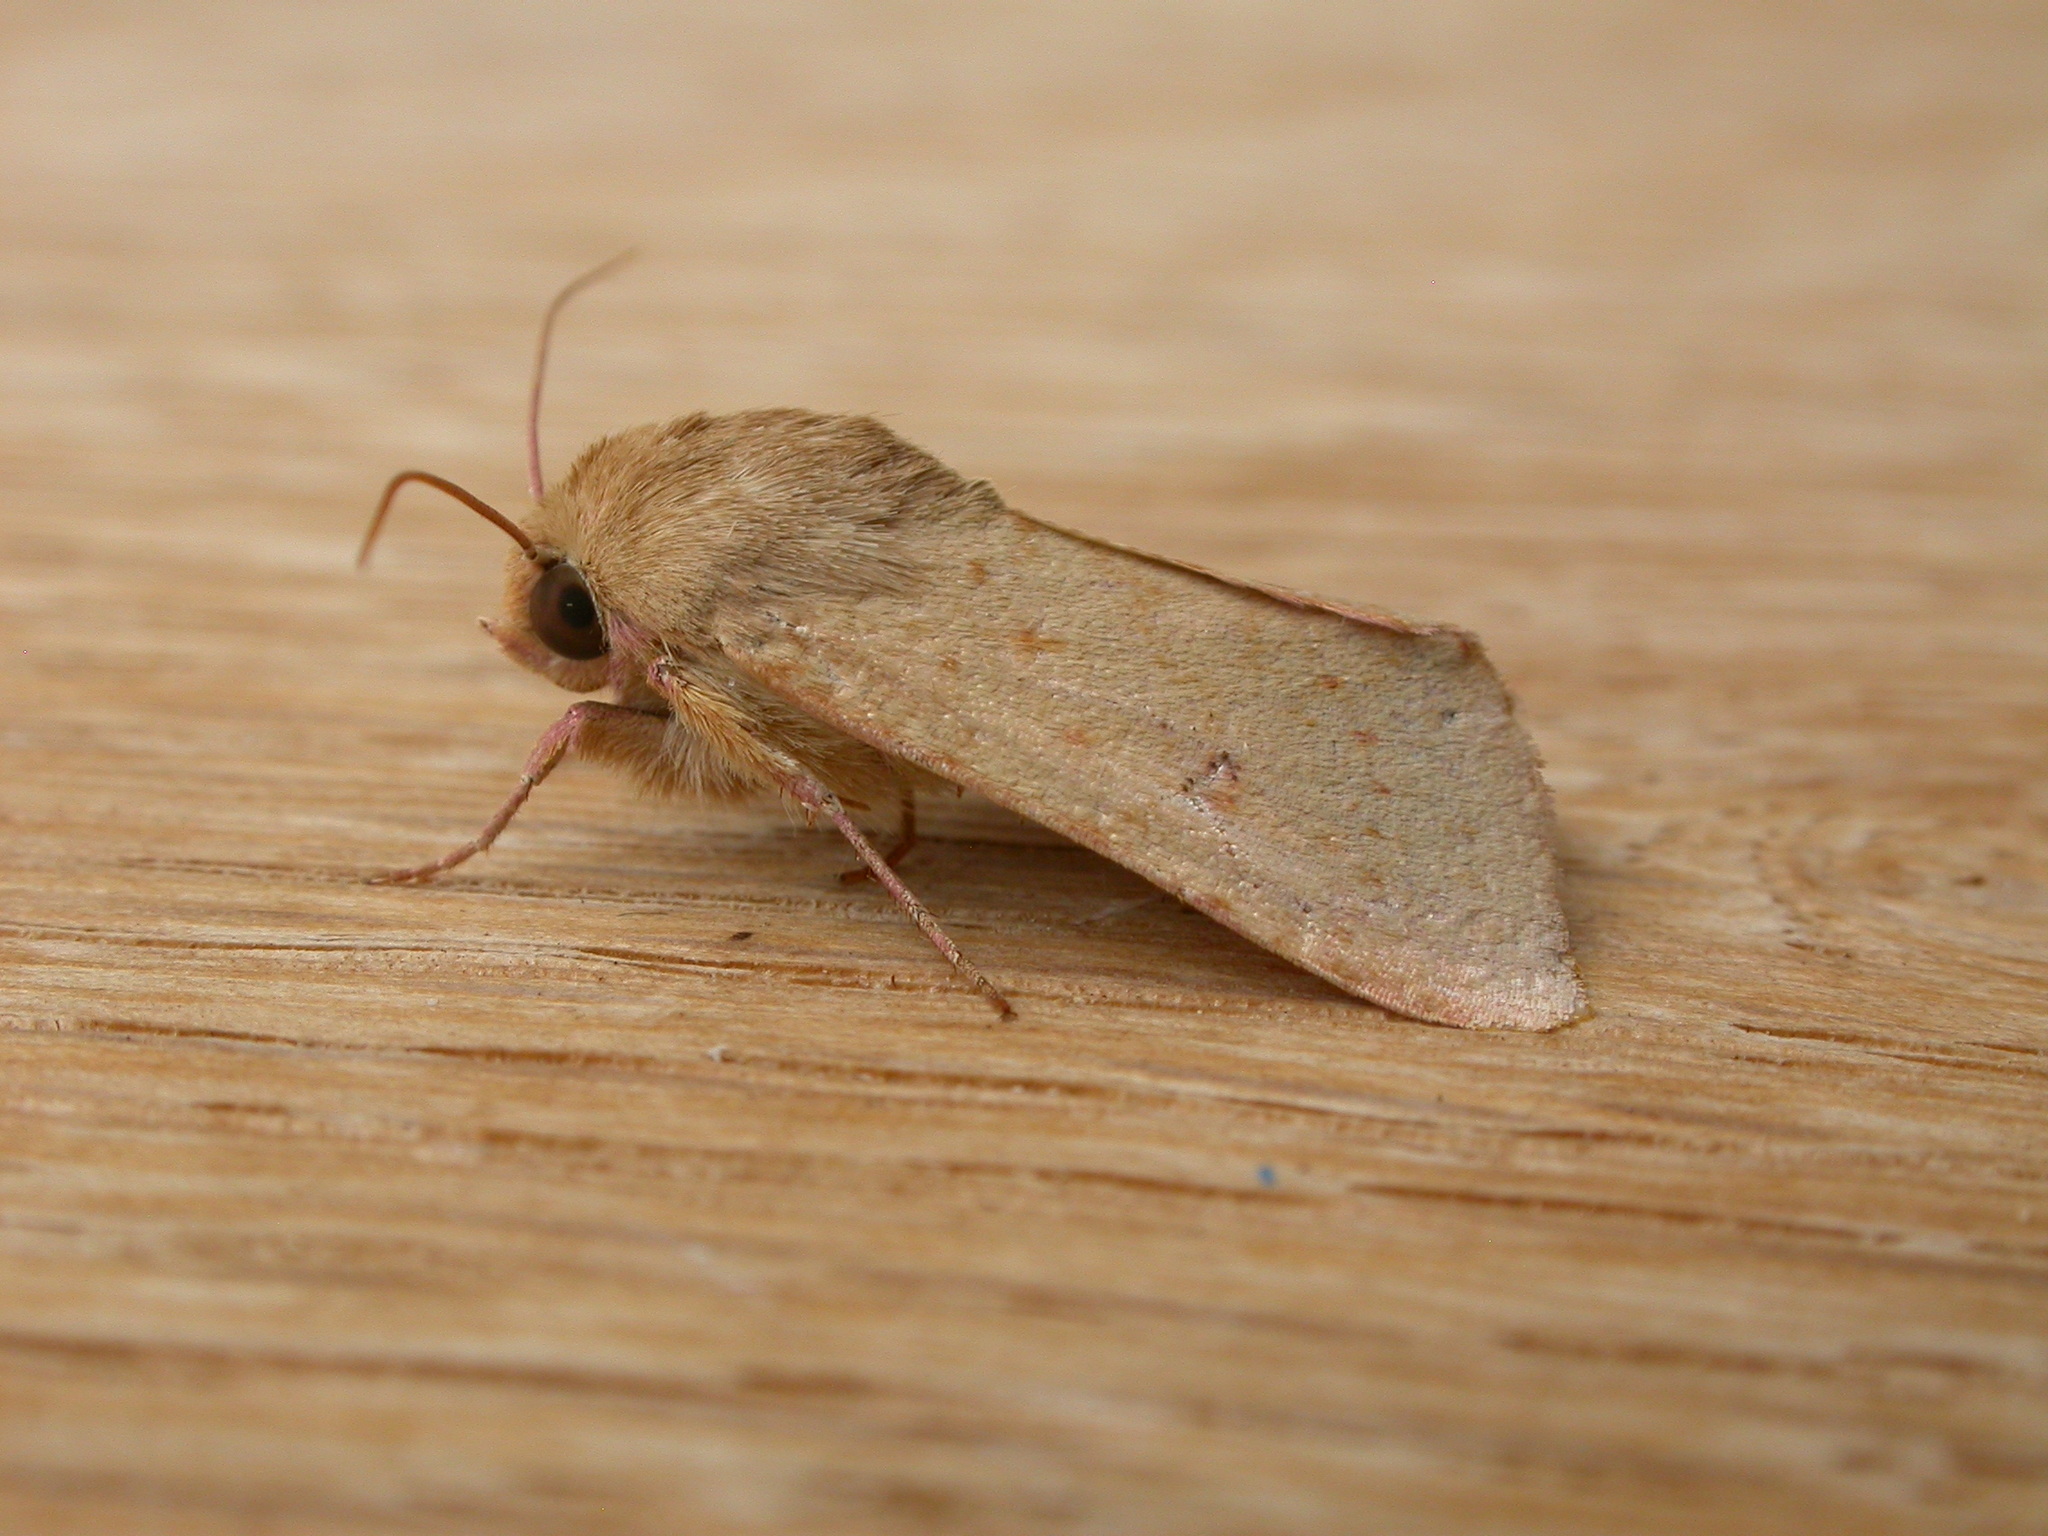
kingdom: Animalia
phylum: Arthropoda
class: Insecta
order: Lepidoptera
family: Noctuidae
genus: Australothis
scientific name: Australothis rubrescens
